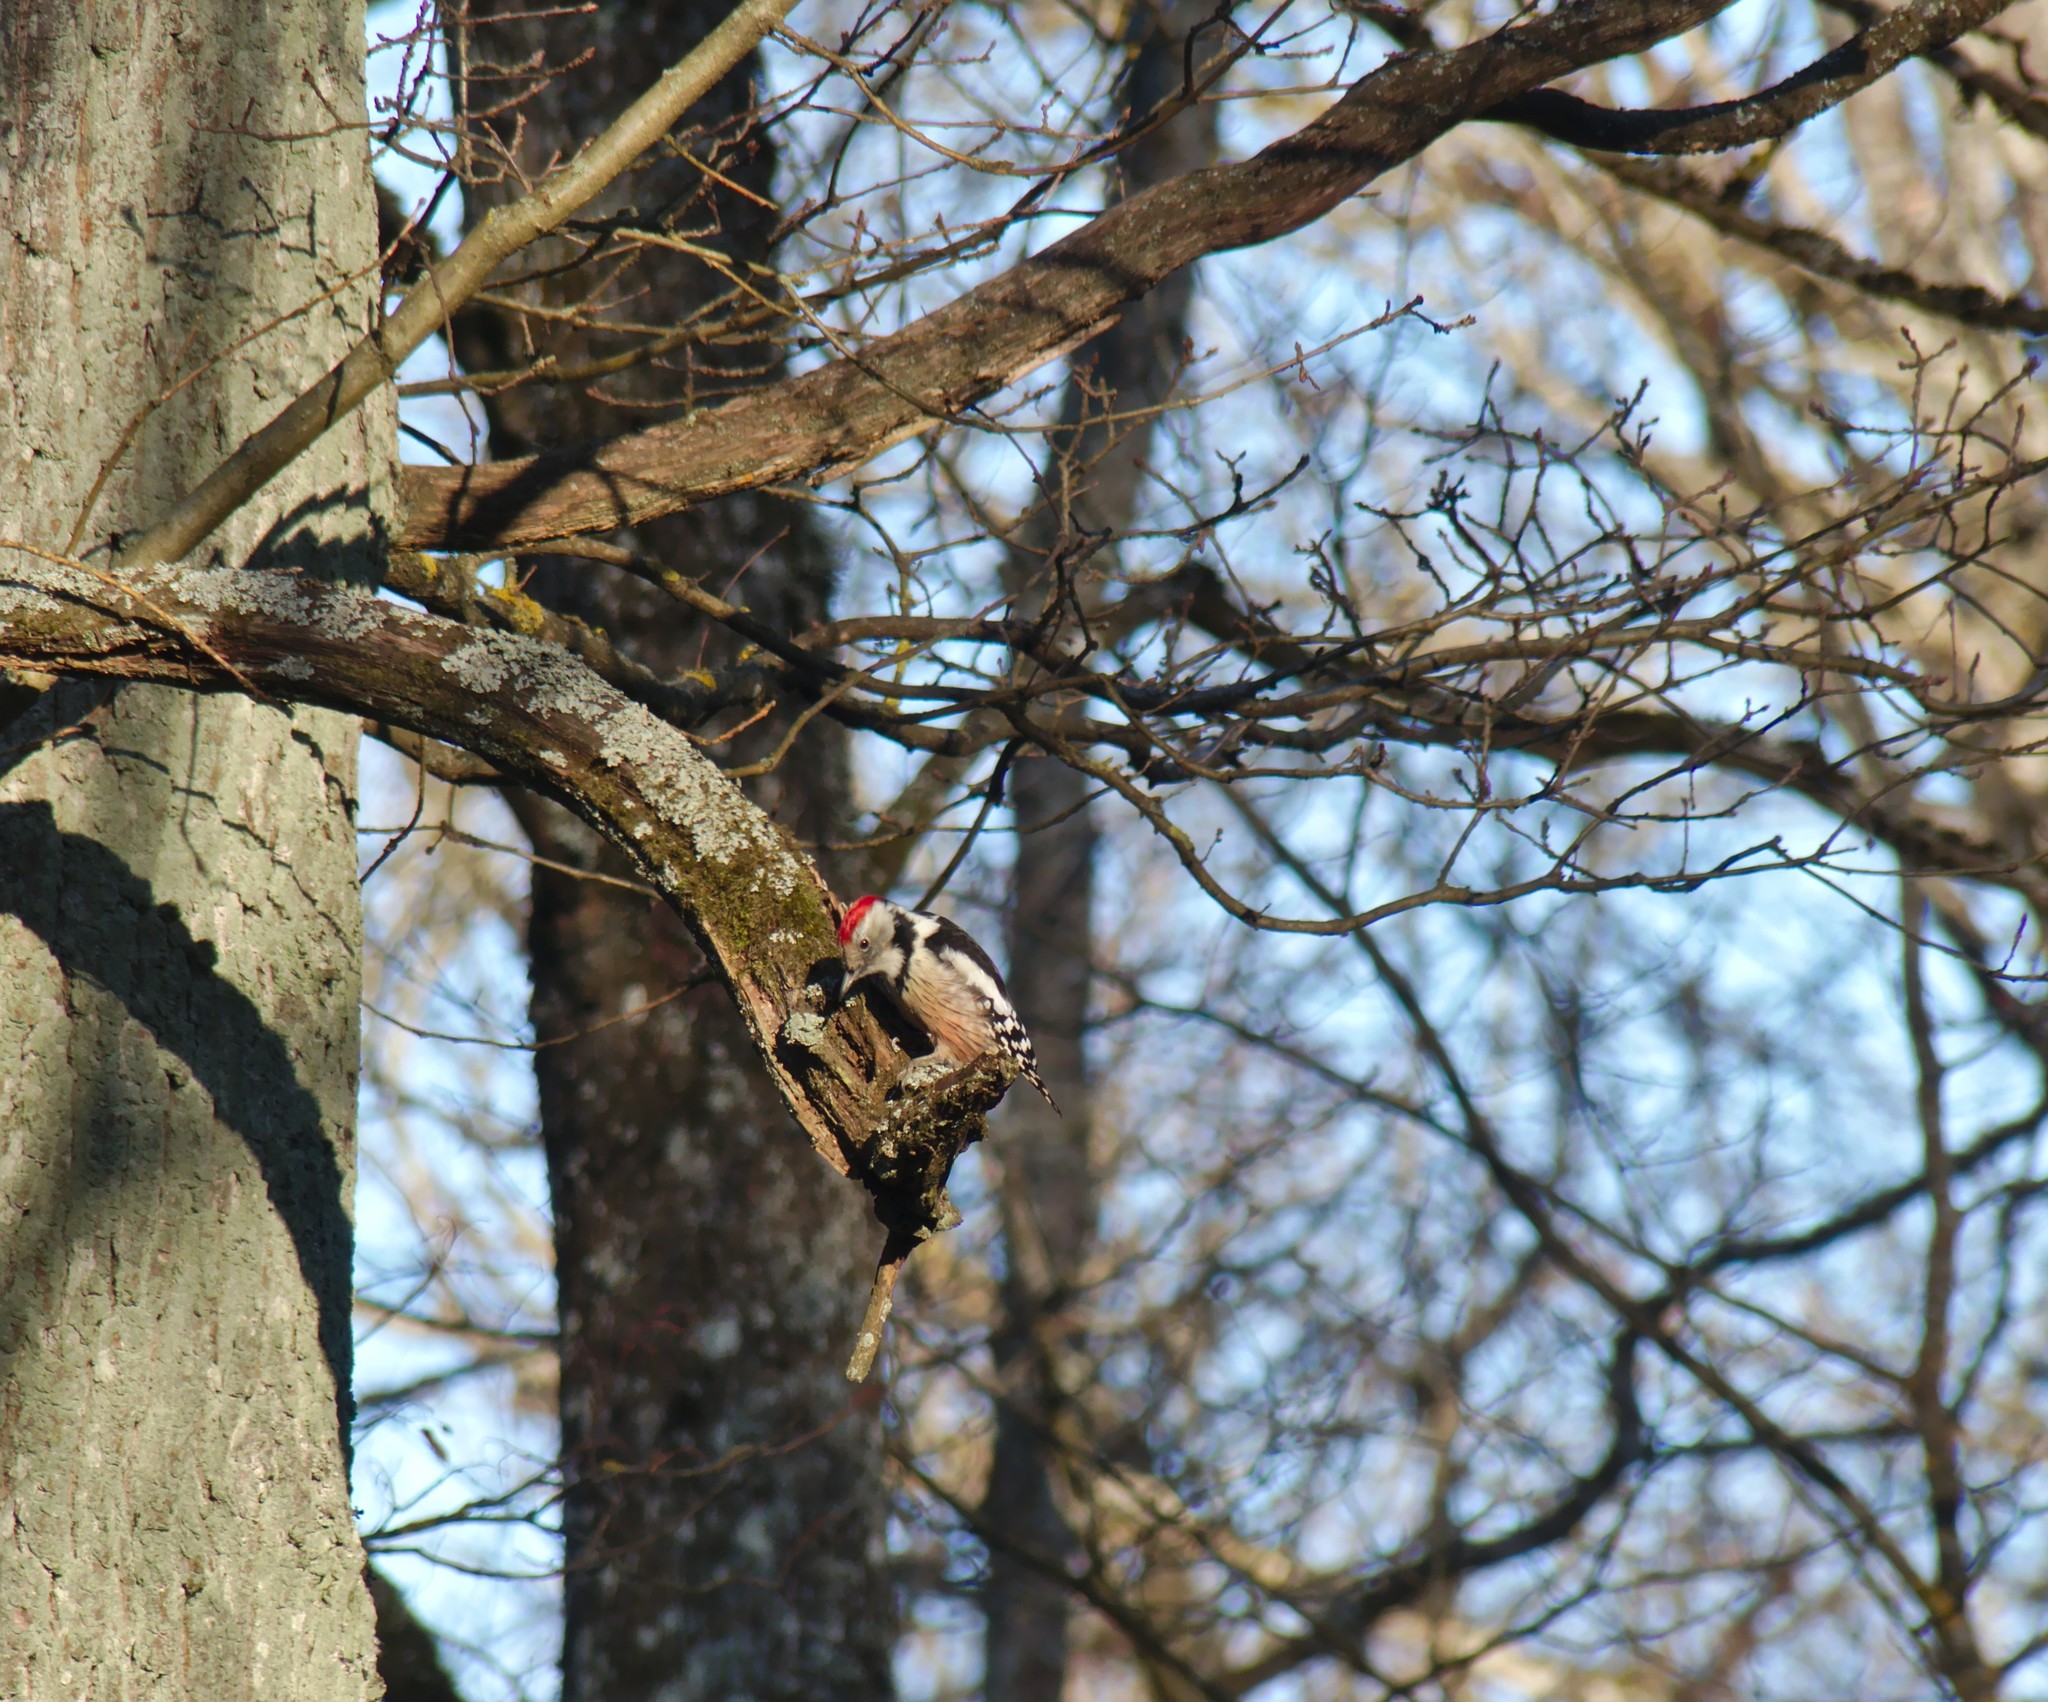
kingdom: Animalia
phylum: Chordata
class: Aves
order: Piciformes
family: Picidae
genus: Dendrocoptes
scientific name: Dendrocoptes medius
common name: Middle spotted woodpecker
